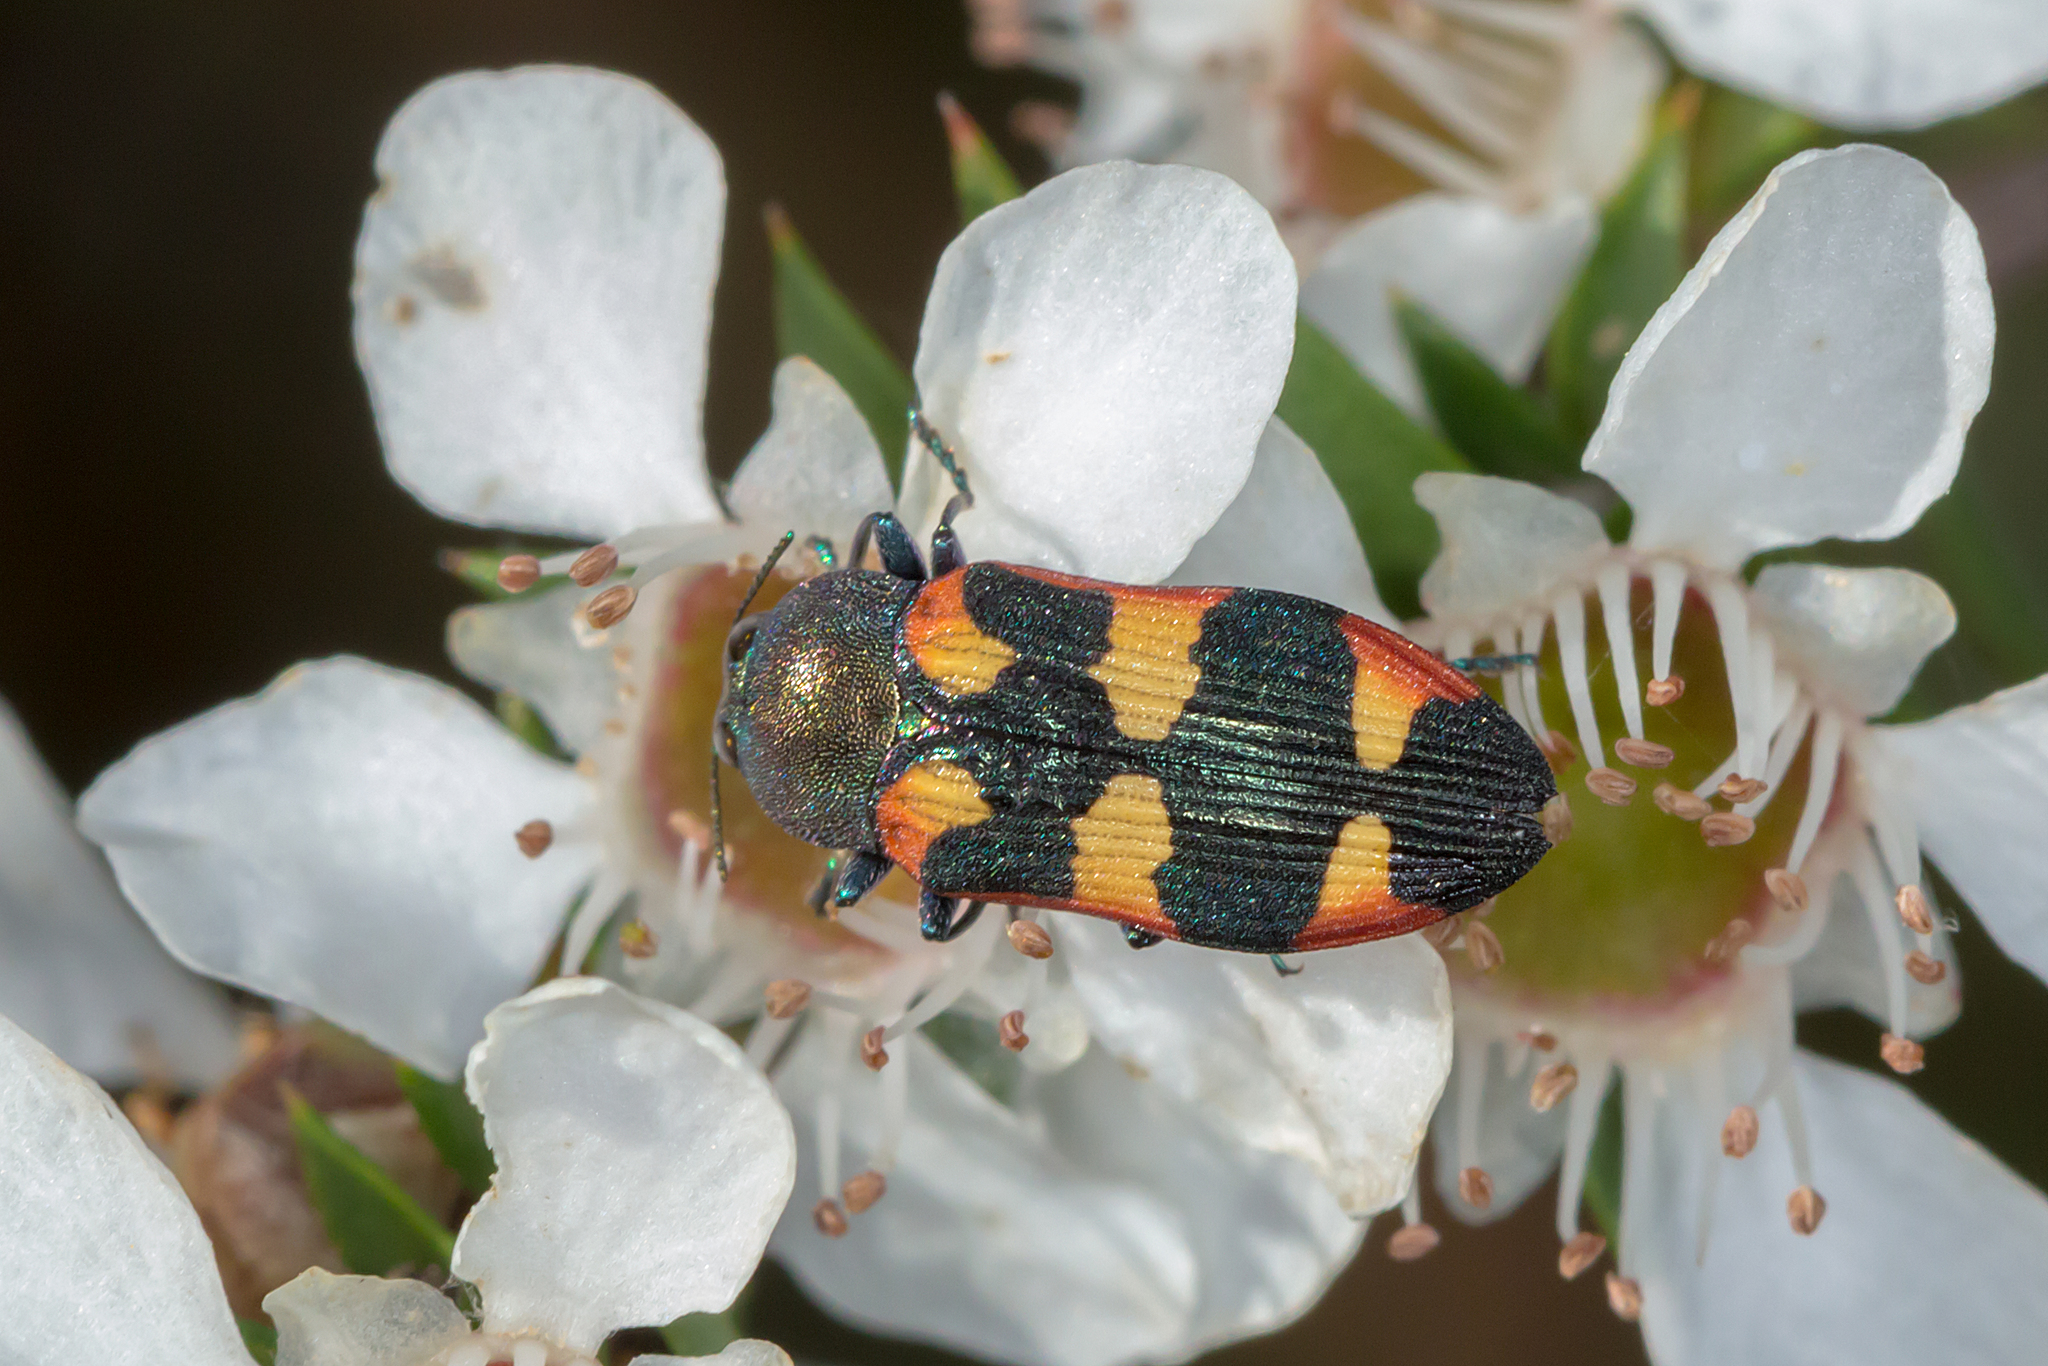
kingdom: Animalia
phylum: Arthropoda
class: Insecta
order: Coleoptera
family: Buprestidae
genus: Castiarina
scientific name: Castiarina sexplagiata
